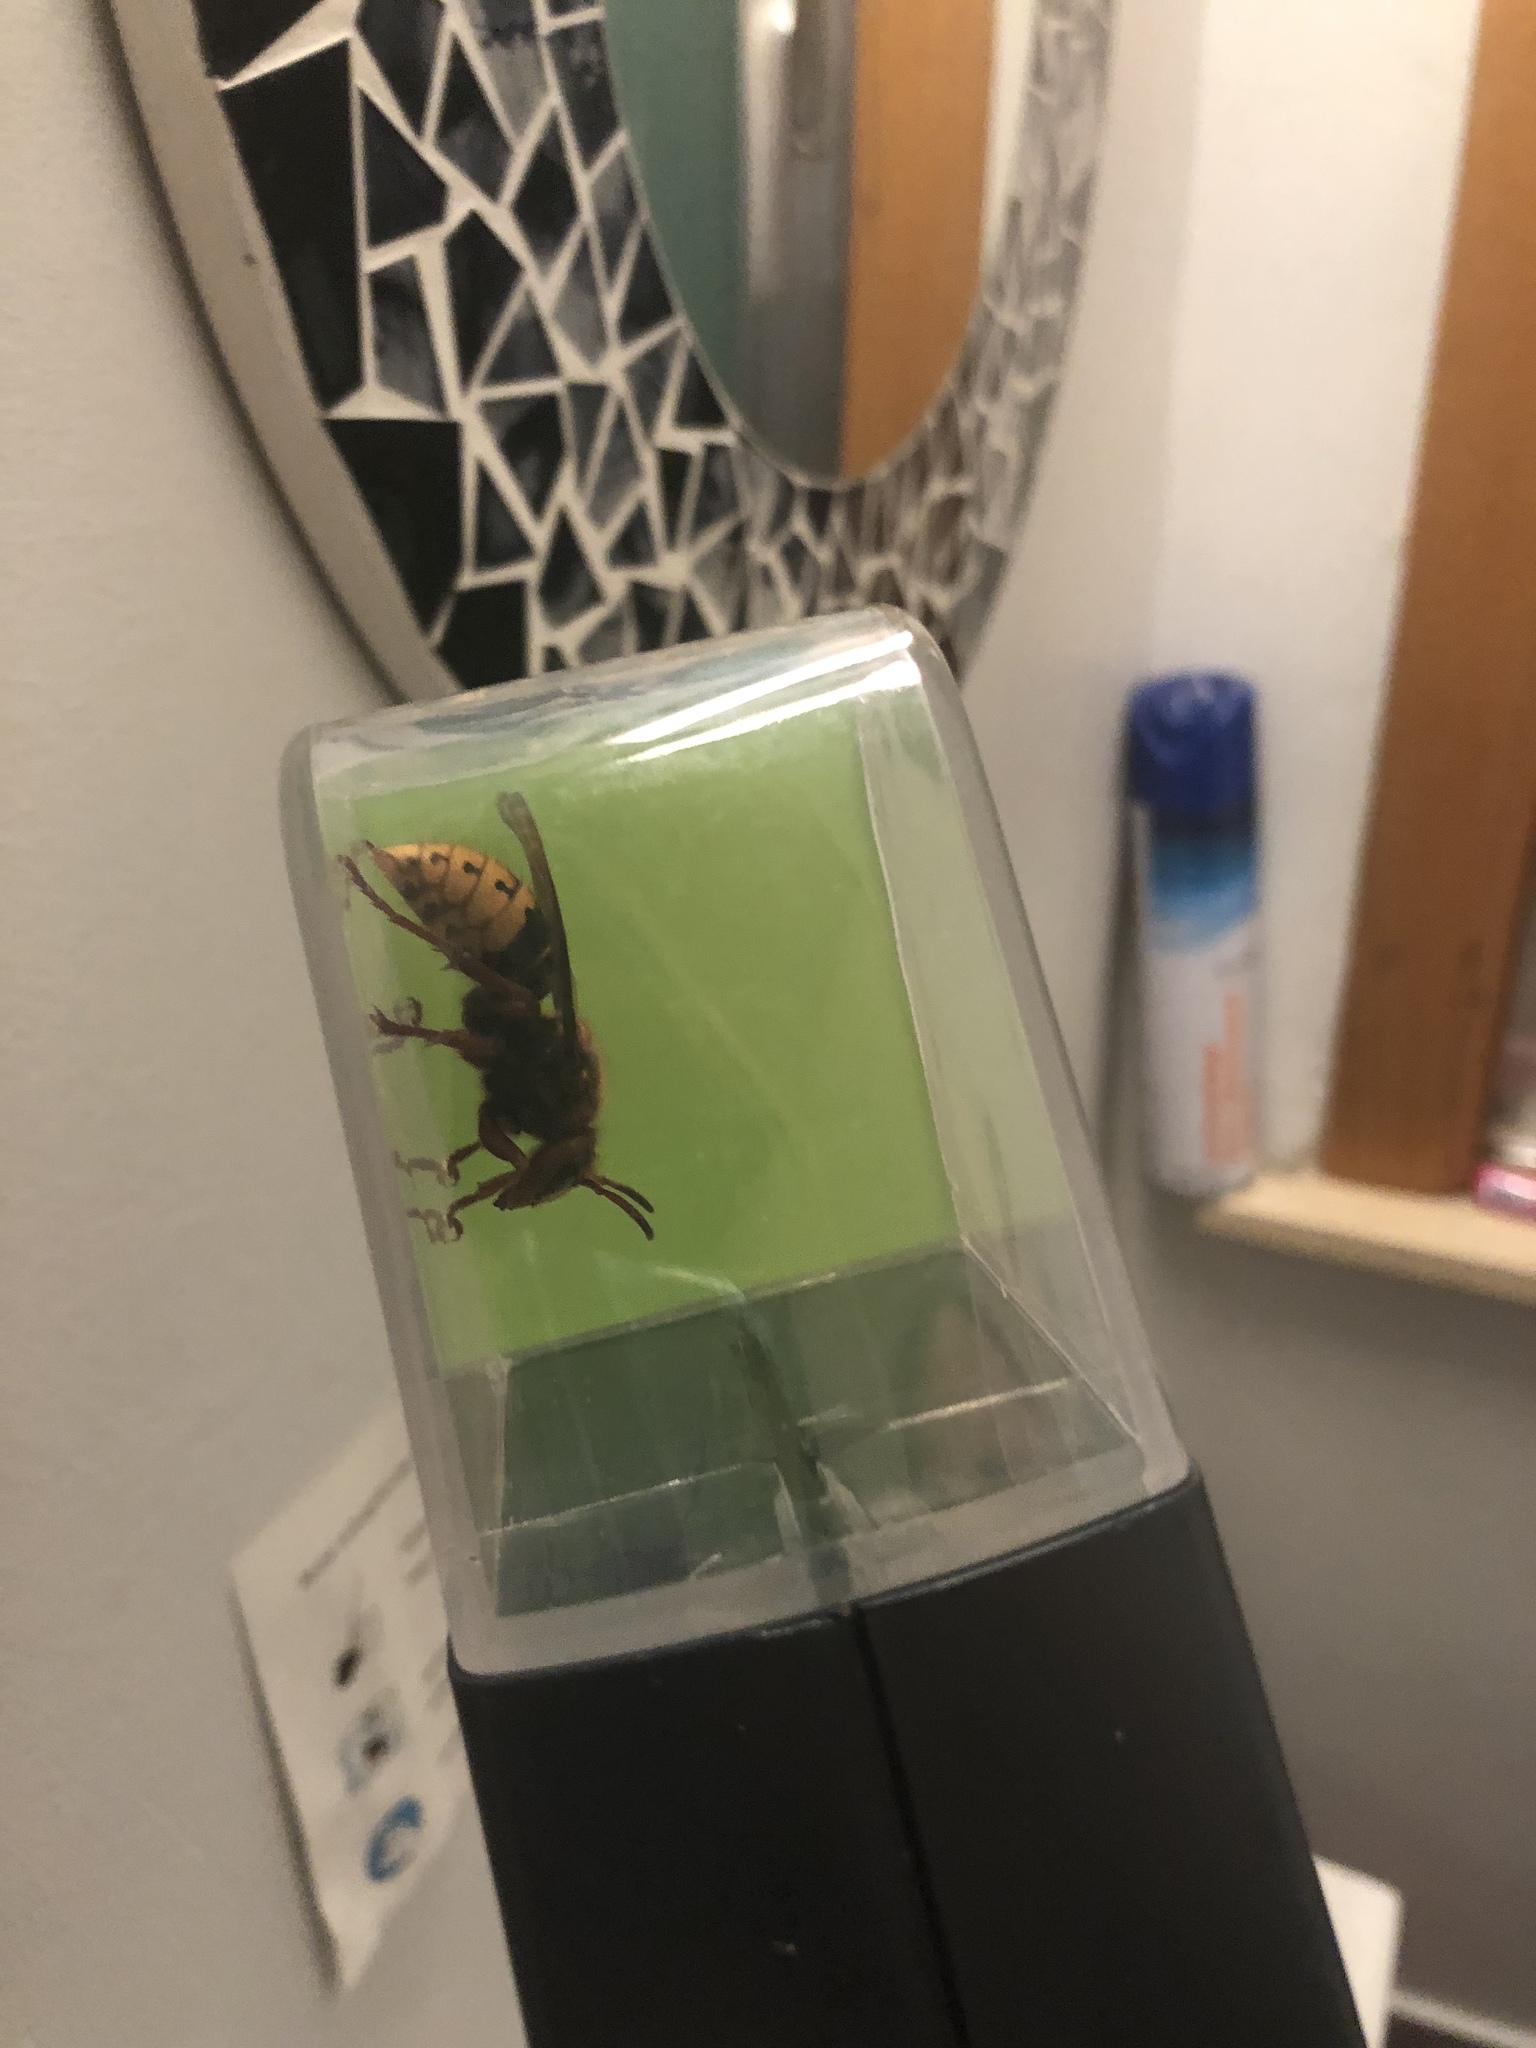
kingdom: Animalia
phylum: Arthropoda
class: Insecta
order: Hymenoptera
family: Vespidae
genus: Vespa
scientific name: Vespa crabro
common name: Hornet
